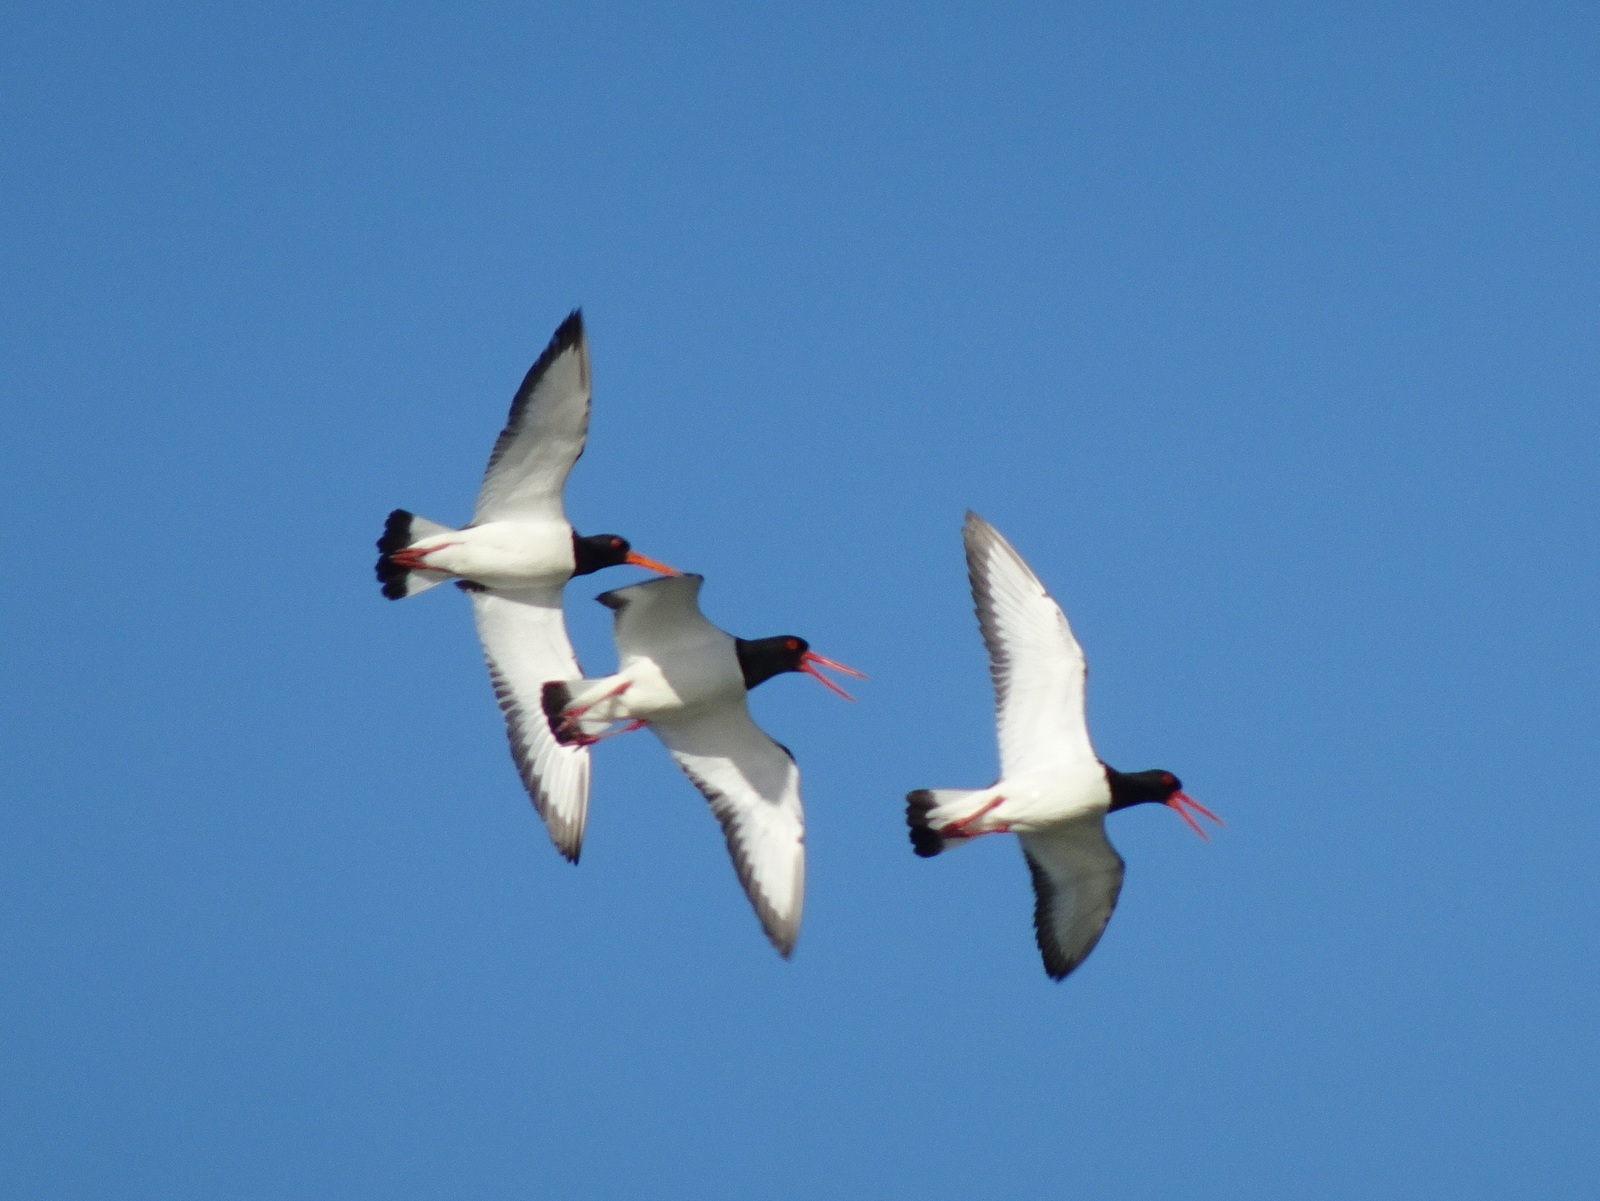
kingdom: Animalia
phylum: Chordata
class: Aves
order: Charadriiformes
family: Haematopodidae
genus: Haematopus
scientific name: Haematopus ostralegus
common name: Eurasian oystercatcher
